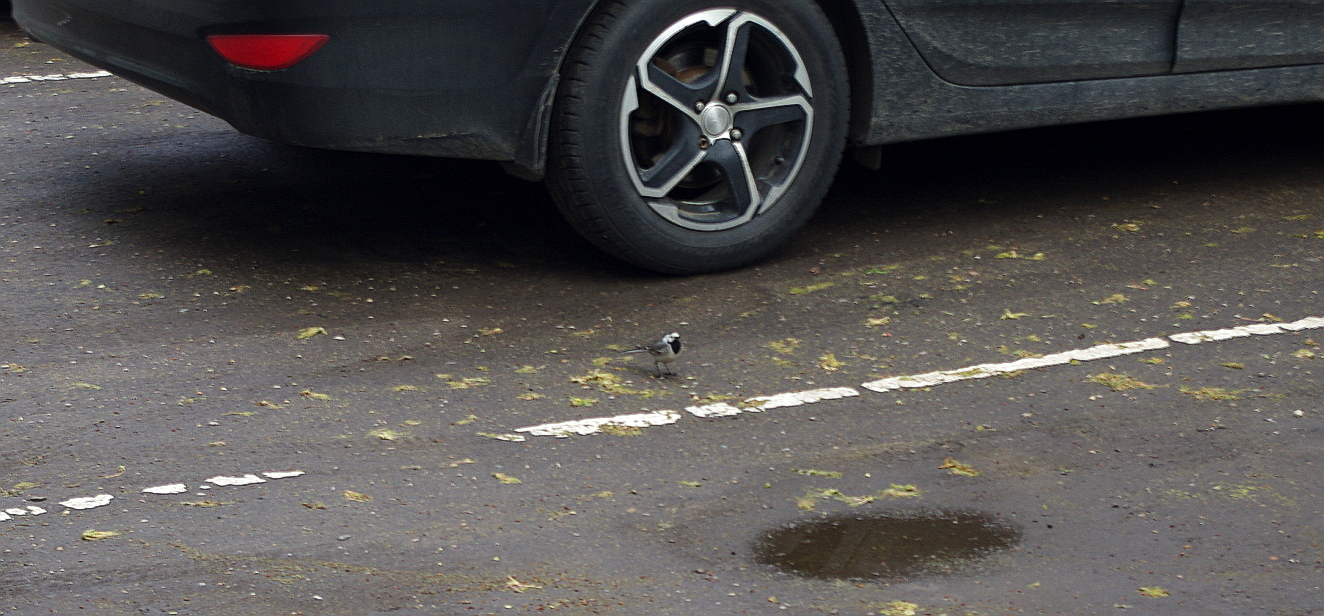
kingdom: Animalia
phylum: Chordata
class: Aves
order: Passeriformes
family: Motacillidae
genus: Motacilla
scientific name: Motacilla alba
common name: White wagtail
